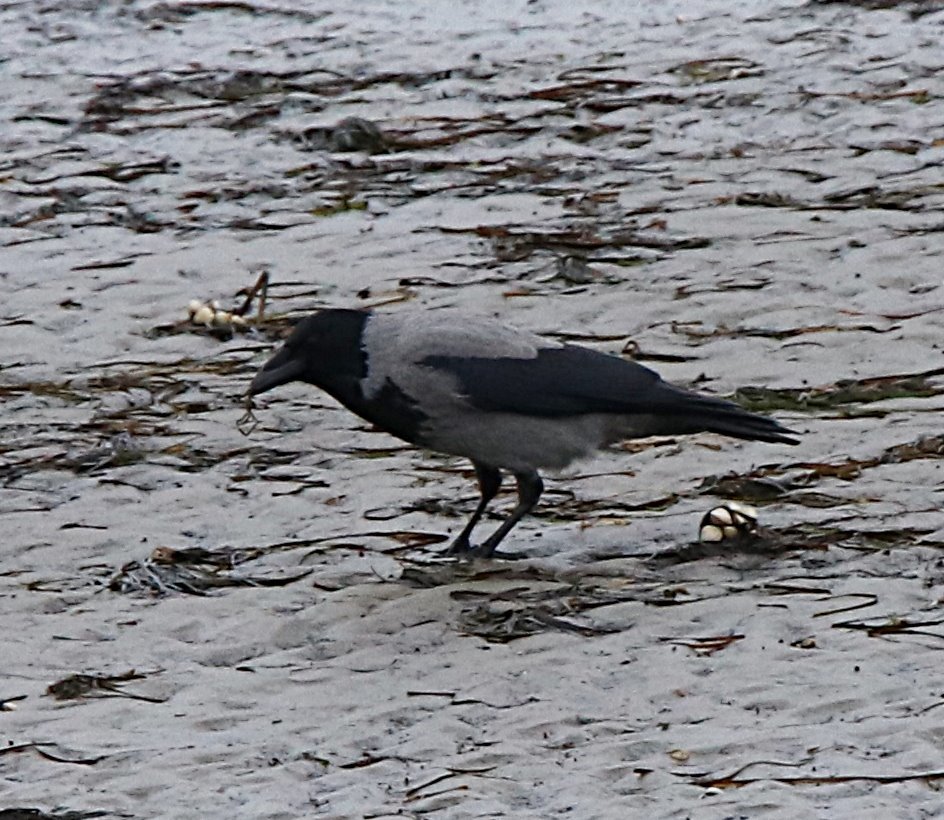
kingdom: Animalia
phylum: Chordata
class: Aves
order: Passeriformes
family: Corvidae
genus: Corvus
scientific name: Corvus cornix
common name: Hooded crow
